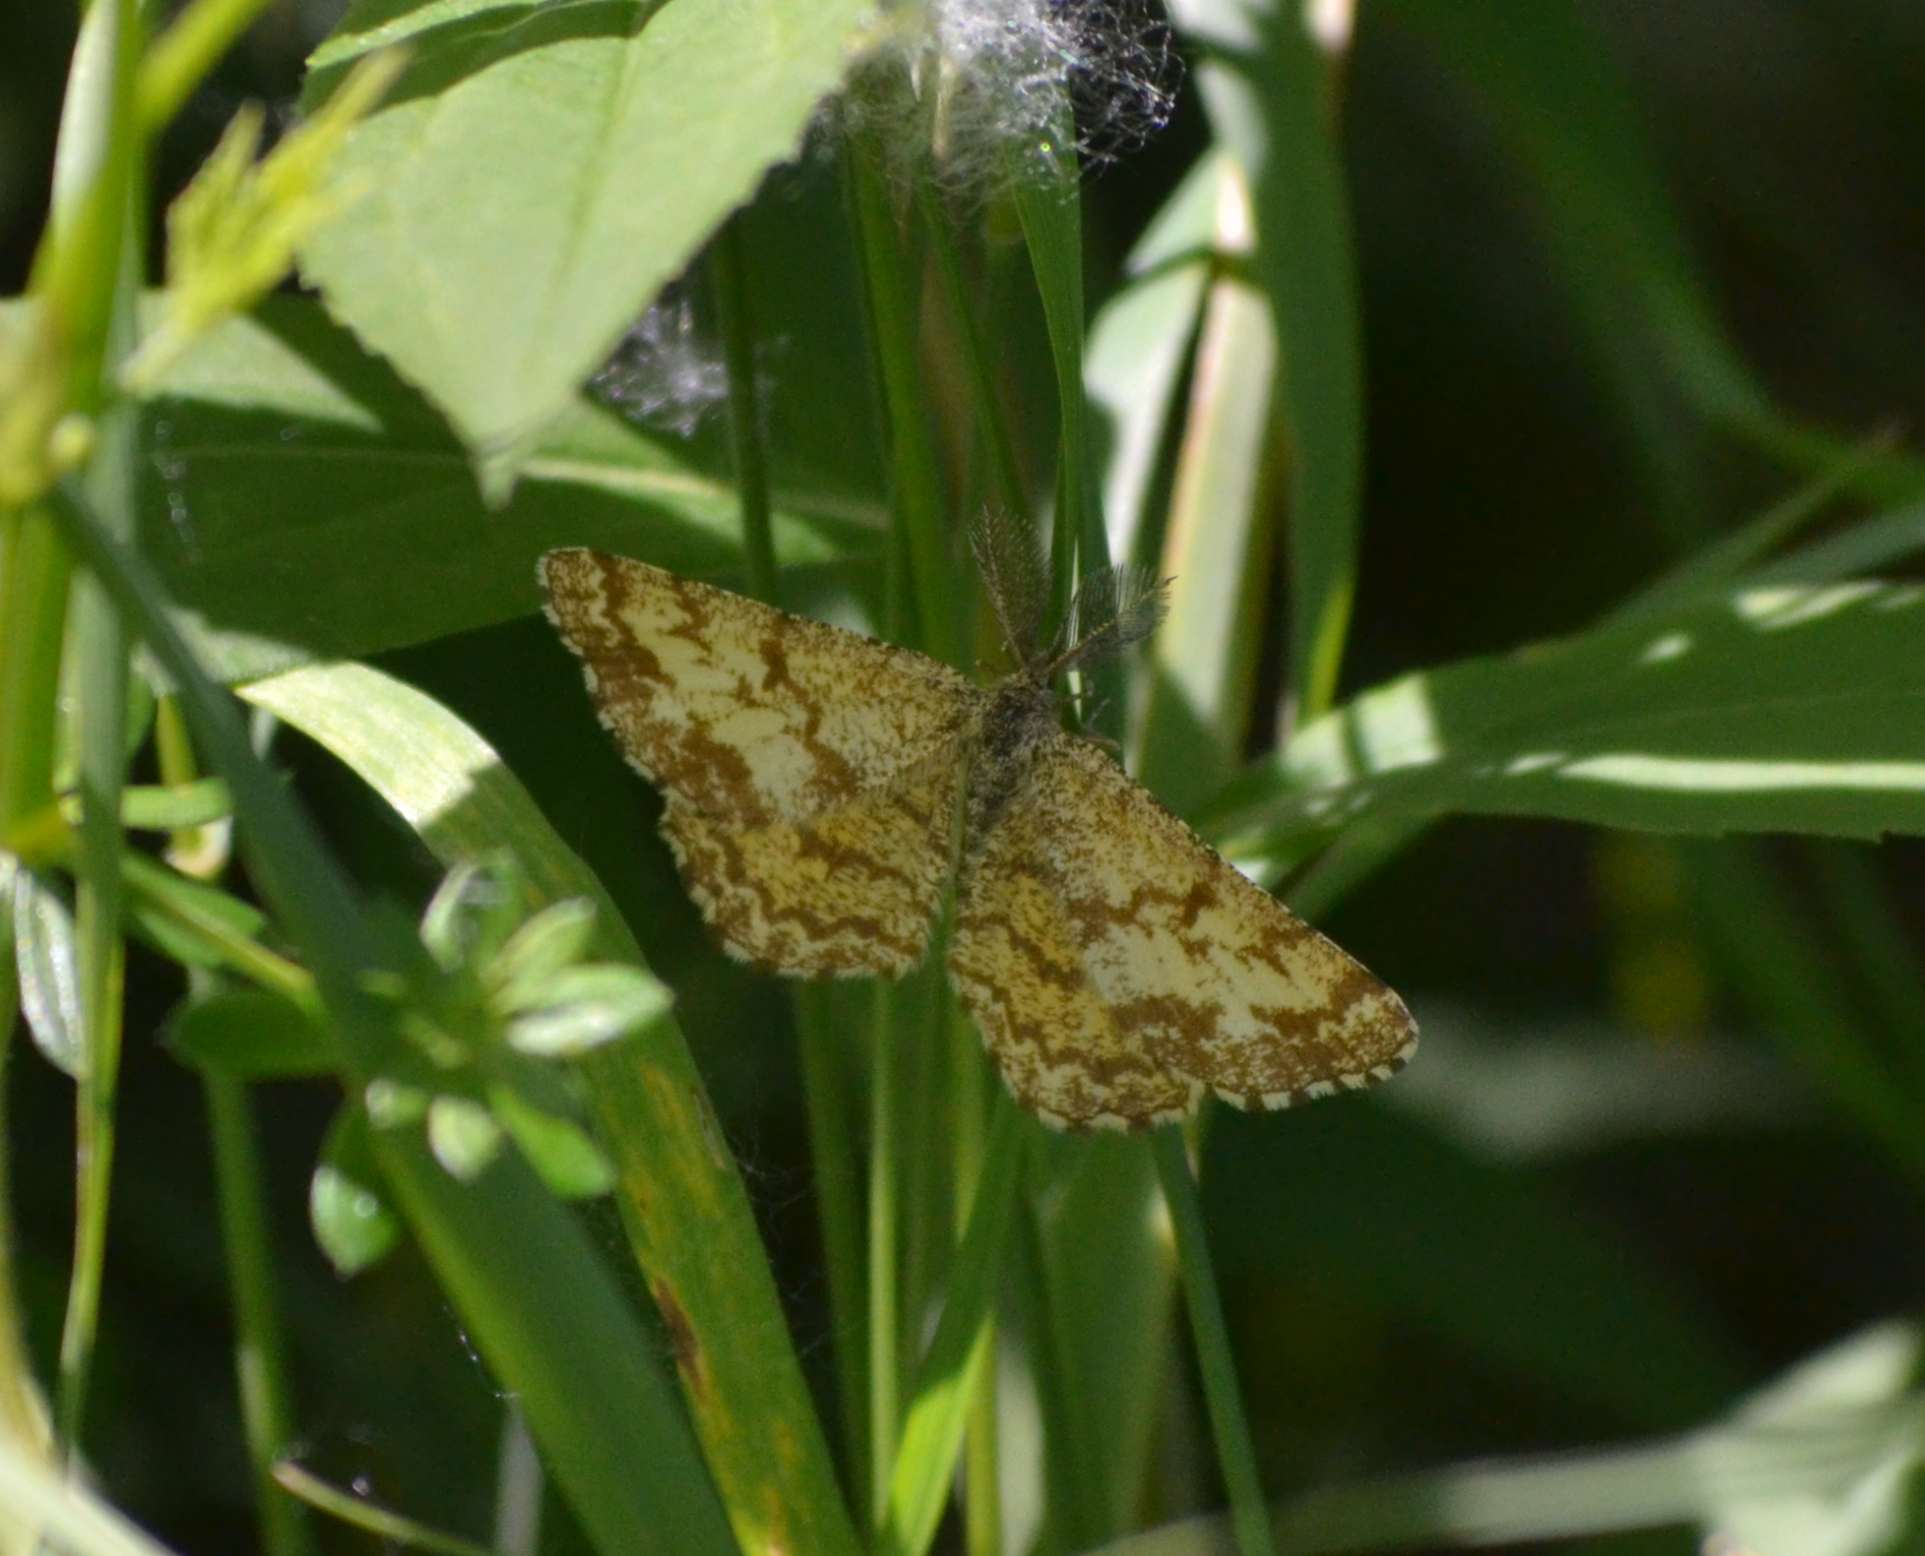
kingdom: Animalia
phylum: Arthropoda
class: Insecta
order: Lepidoptera
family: Geometridae
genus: Ematurga
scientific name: Ematurga atomaria
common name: Common heath
